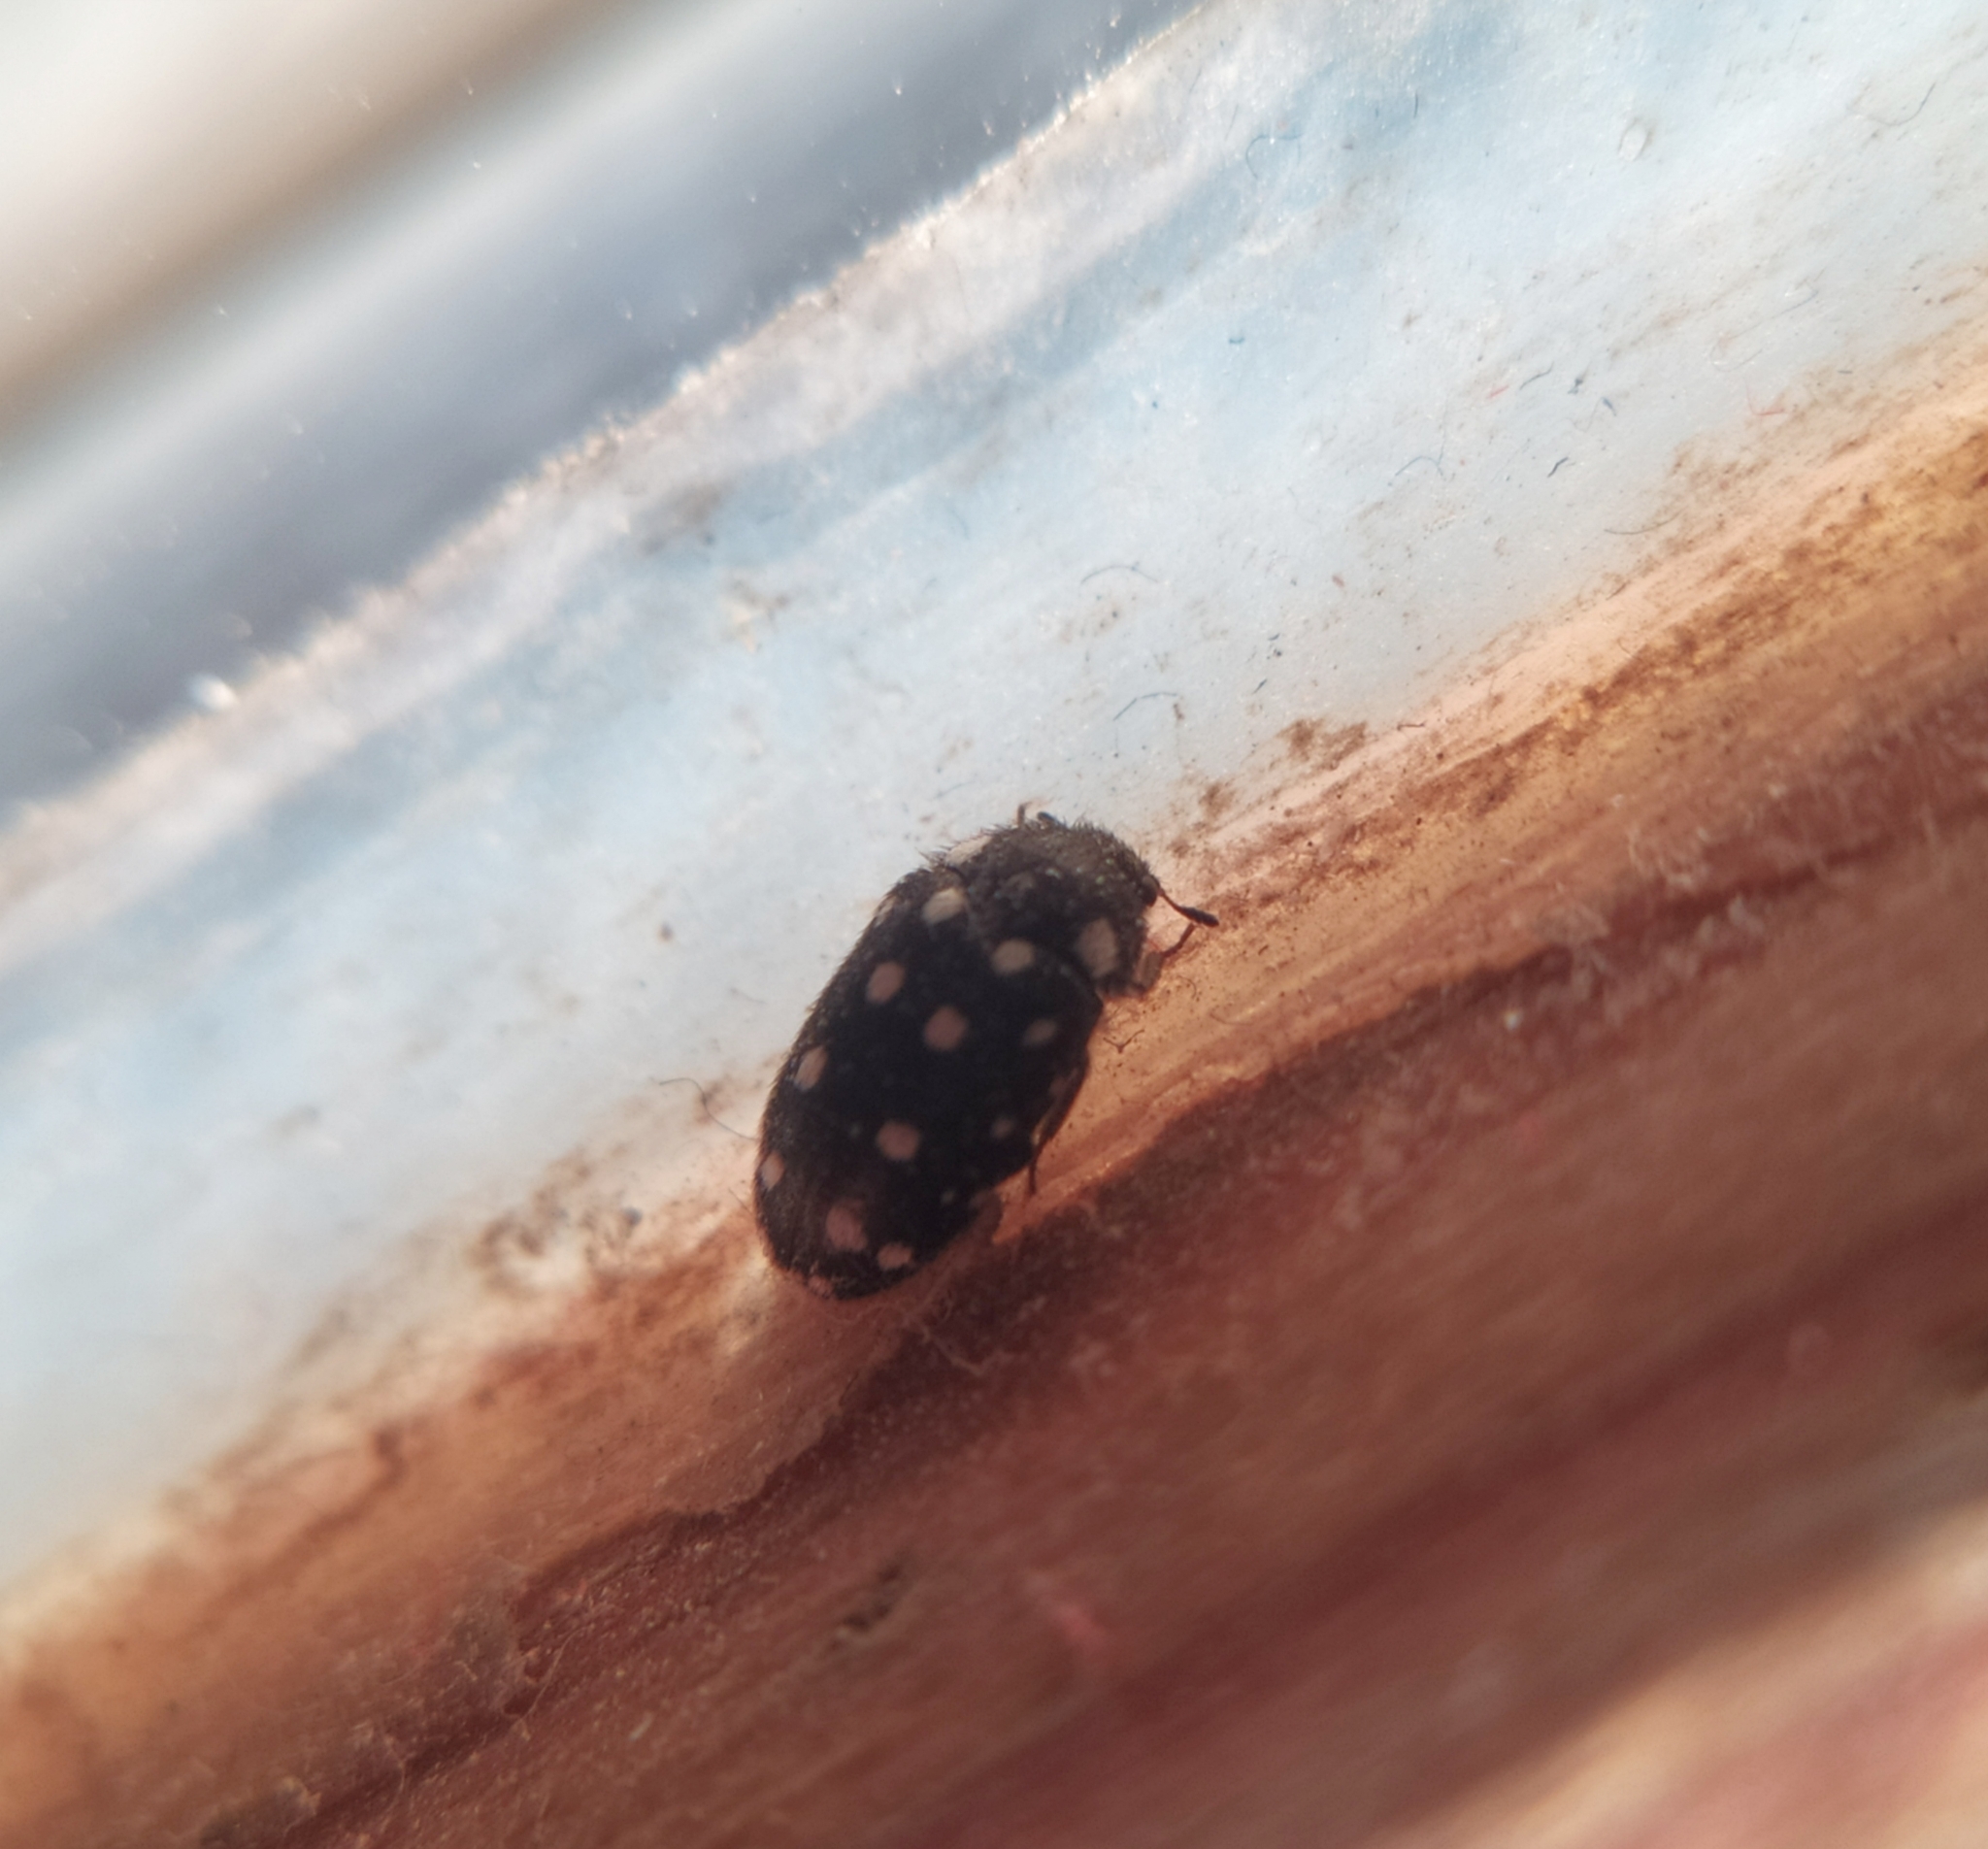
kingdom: Animalia
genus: Paranovelsis
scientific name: Paranovelsis
